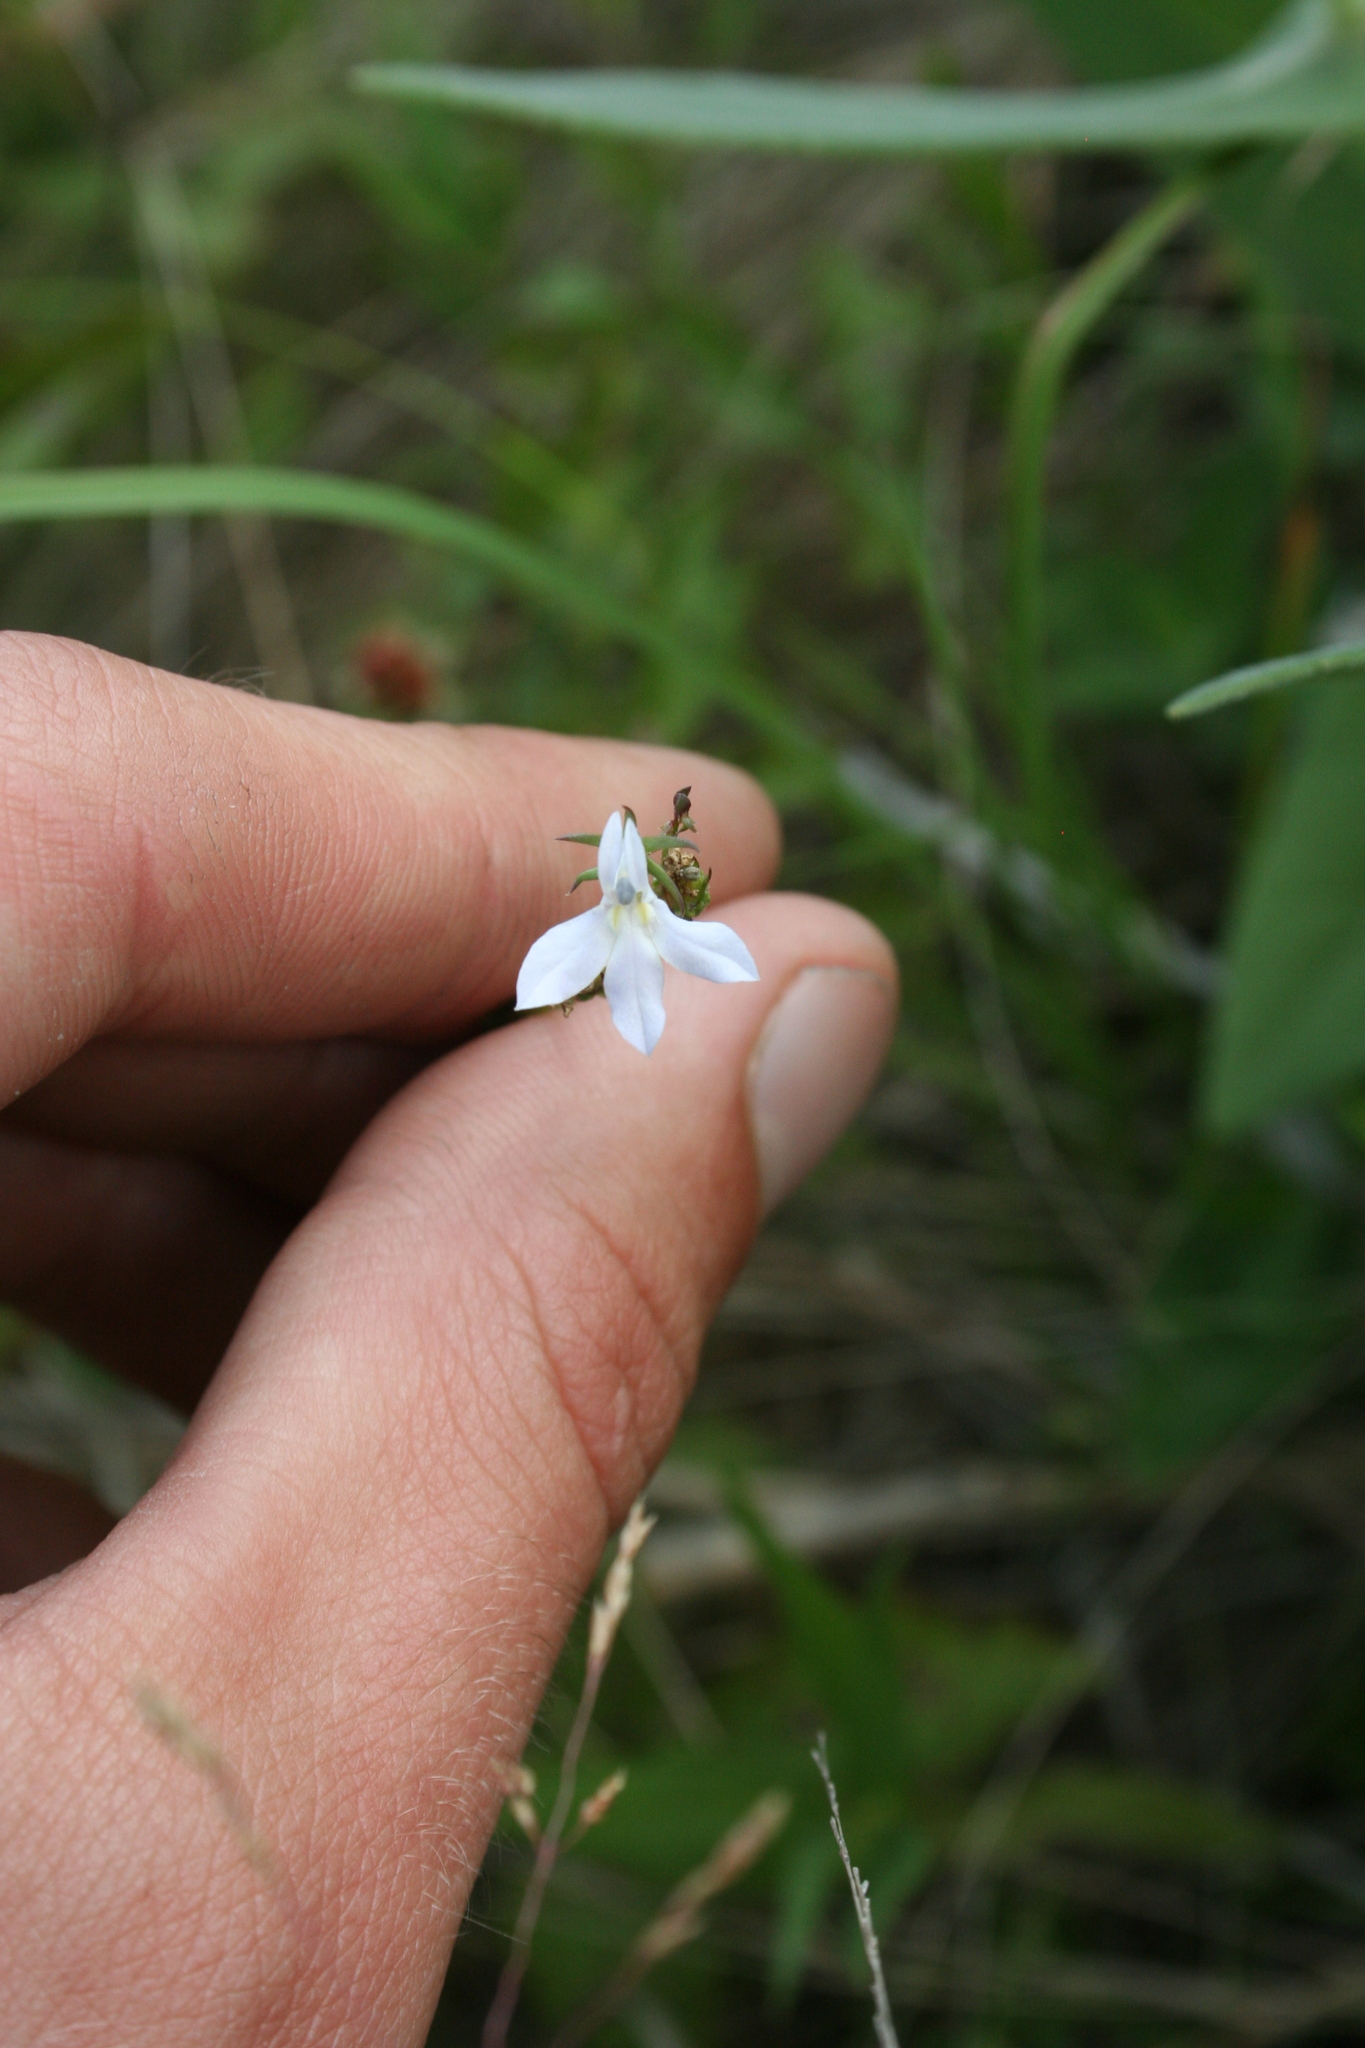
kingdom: Plantae
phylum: Tracheophyta
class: Magnoliopsida
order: Asterales
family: Campanulaceae
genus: Lobelia
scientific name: Lobelia spicata
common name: Pale-spike lobelia
